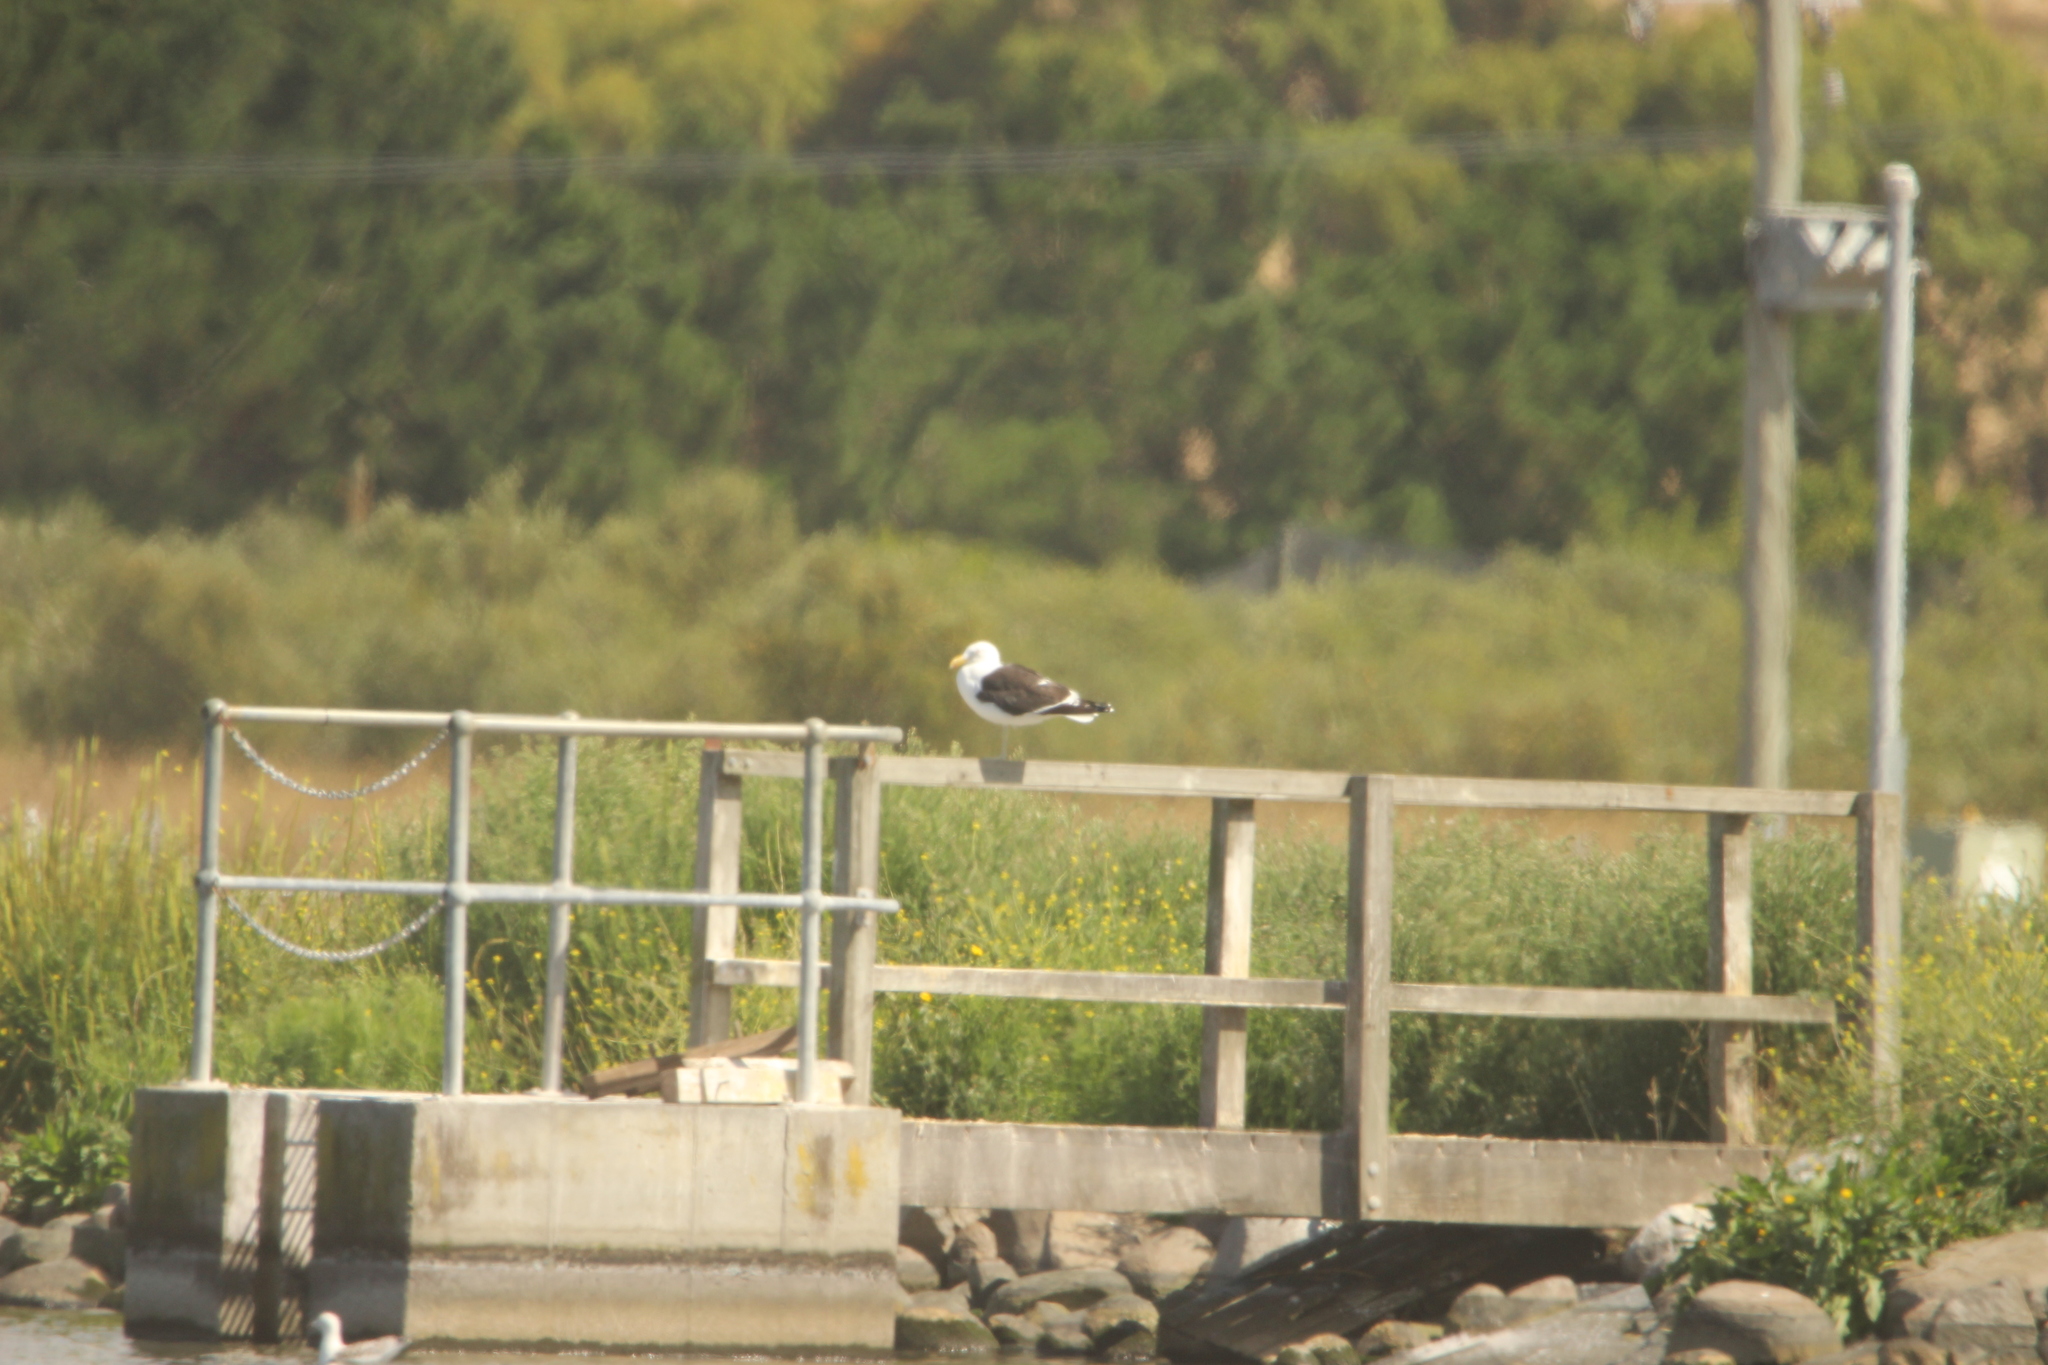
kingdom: Animalia
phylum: Chordata
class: Aves
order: Charadriiformes
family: Laridae
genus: Larus
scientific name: Larus dominicanus
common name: Kelp gull
